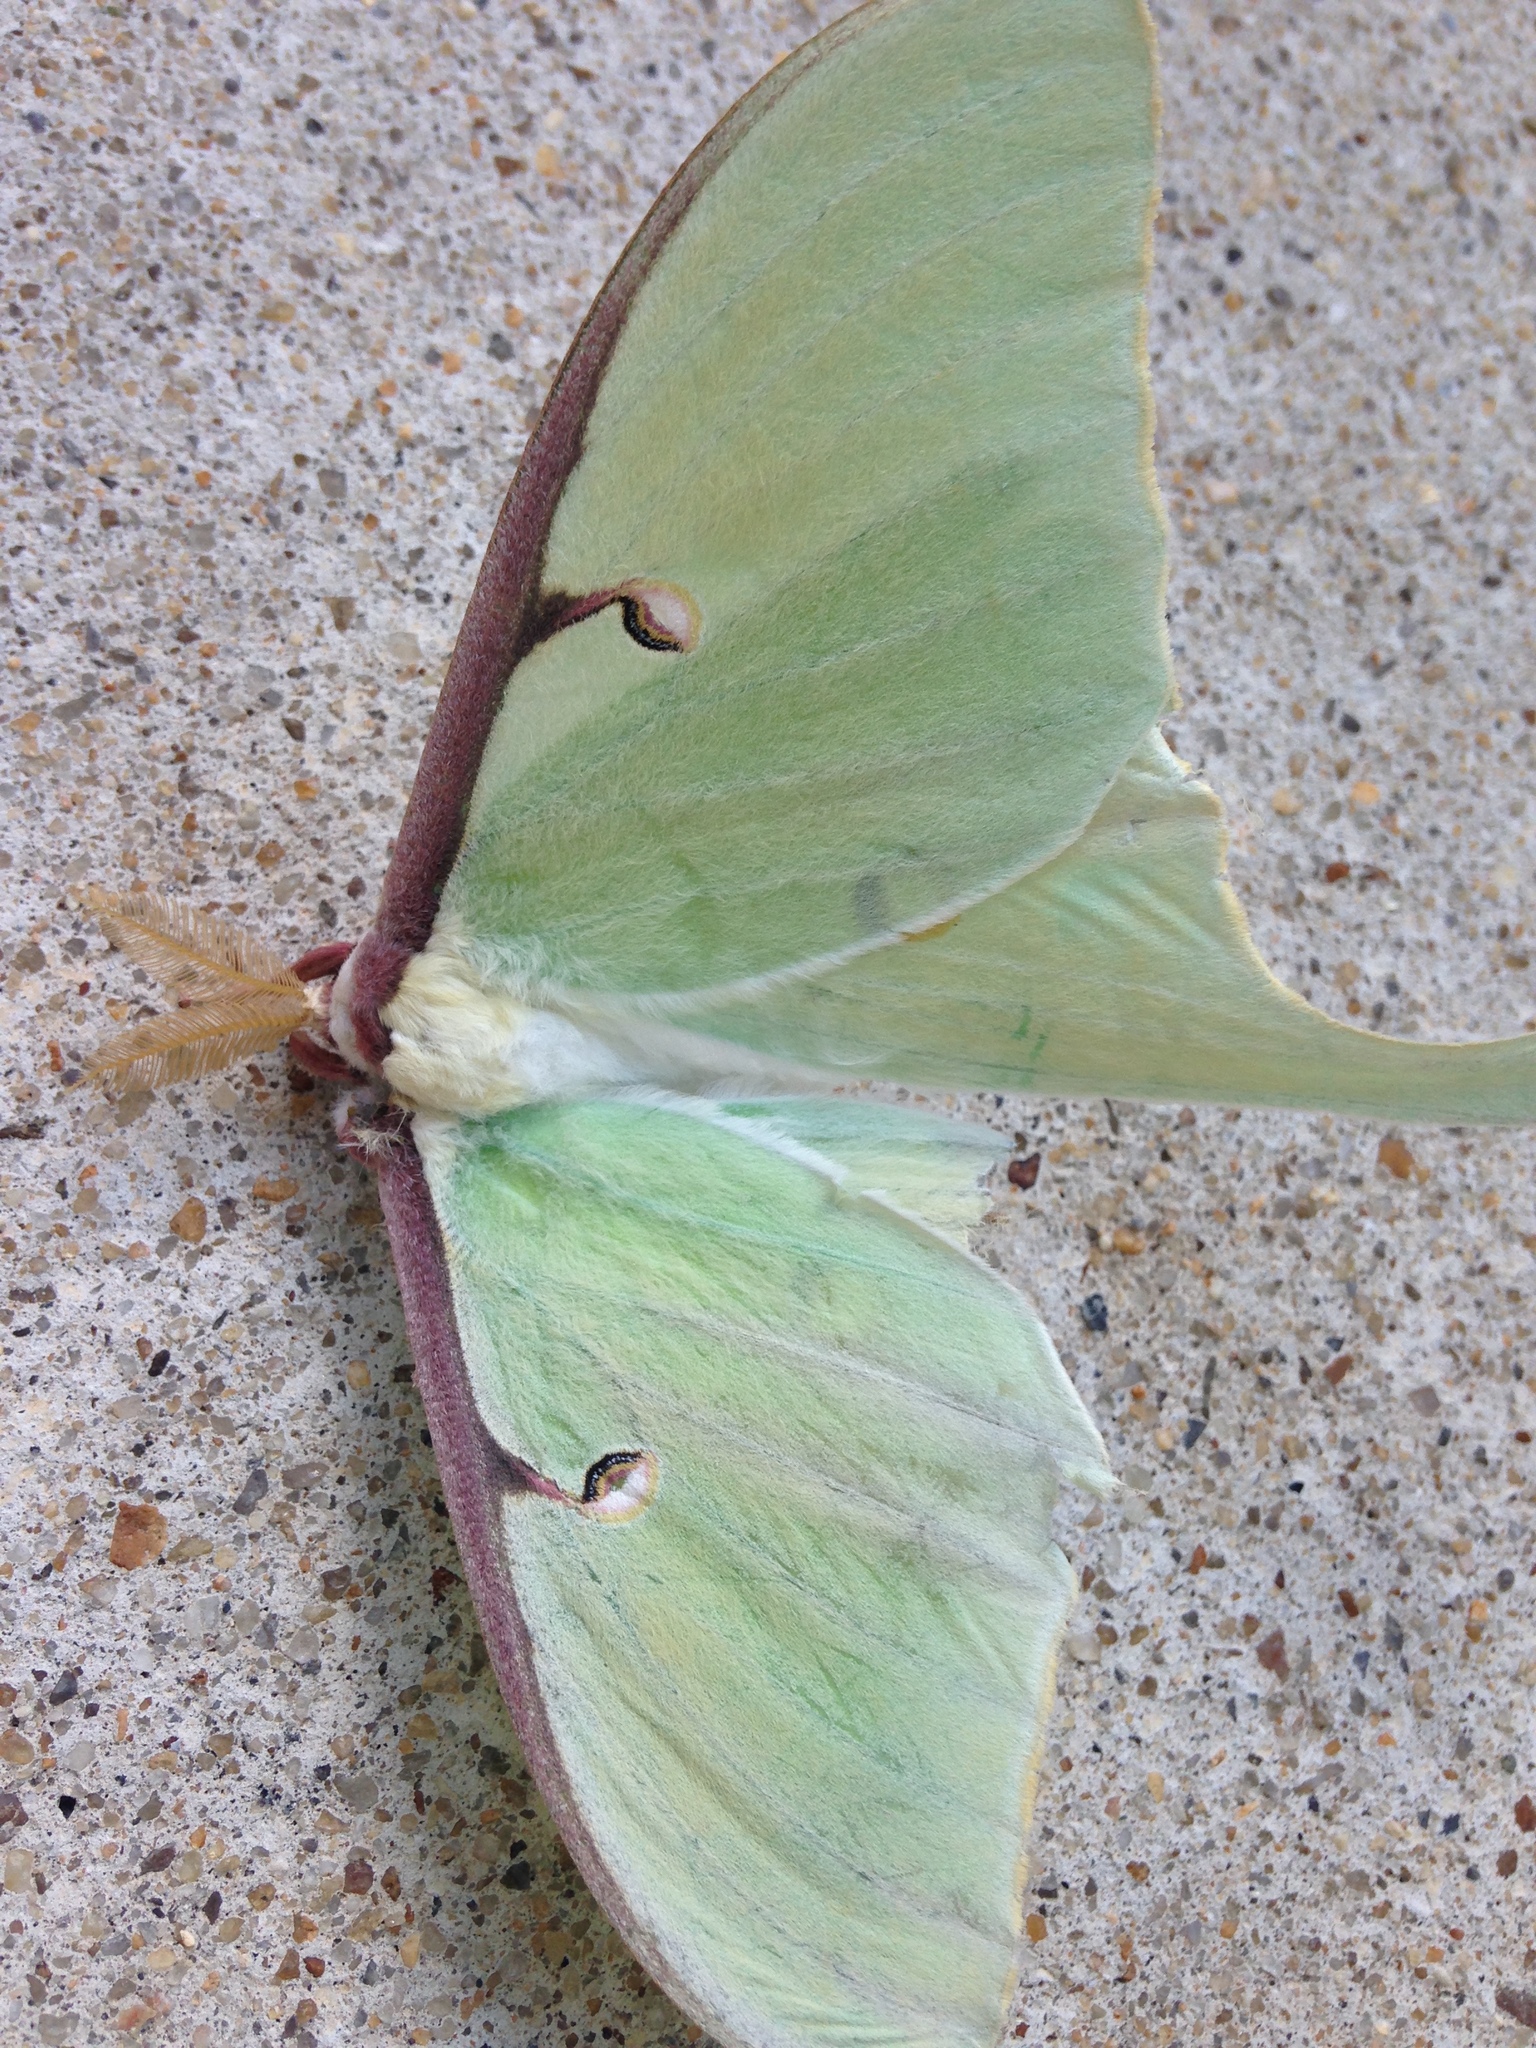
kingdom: Animalia
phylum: Arthropoda
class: Insecta
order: Lepidoptera
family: Saturniidae
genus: Actias
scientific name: Actias luna
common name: Luna moth
